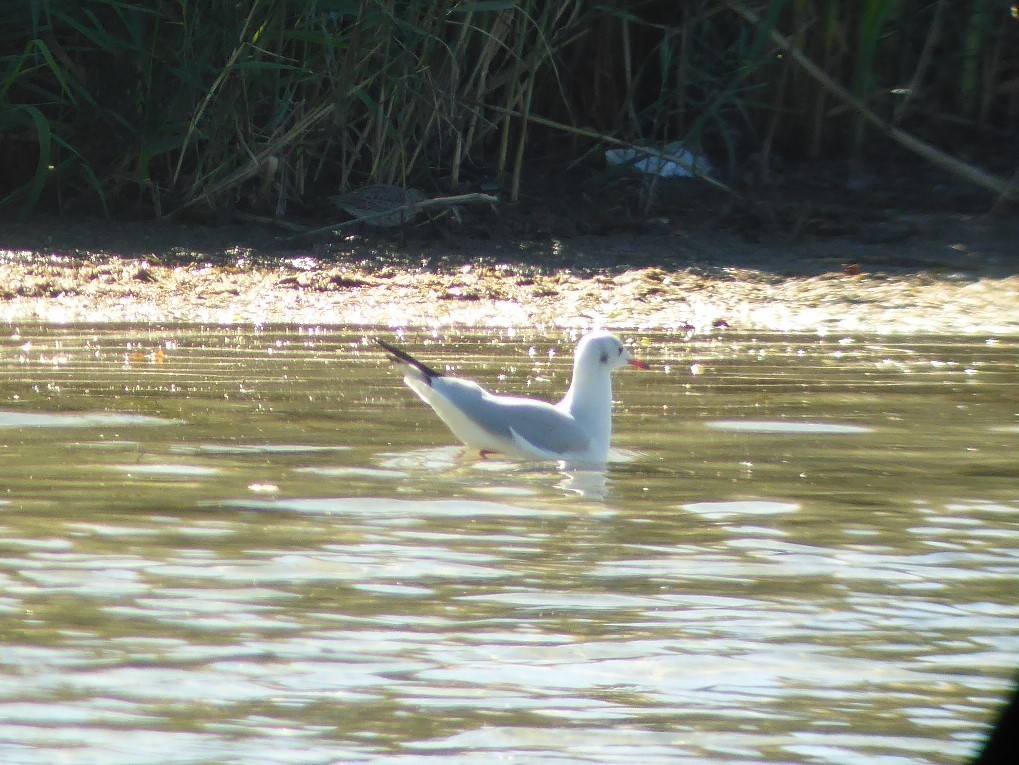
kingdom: Animalia
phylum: Chordata
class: Aves
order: Charadriiformes
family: Laridae
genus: Chroicocephalus
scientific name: Chroicocephalus ridibundus
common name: Black-headed gull
